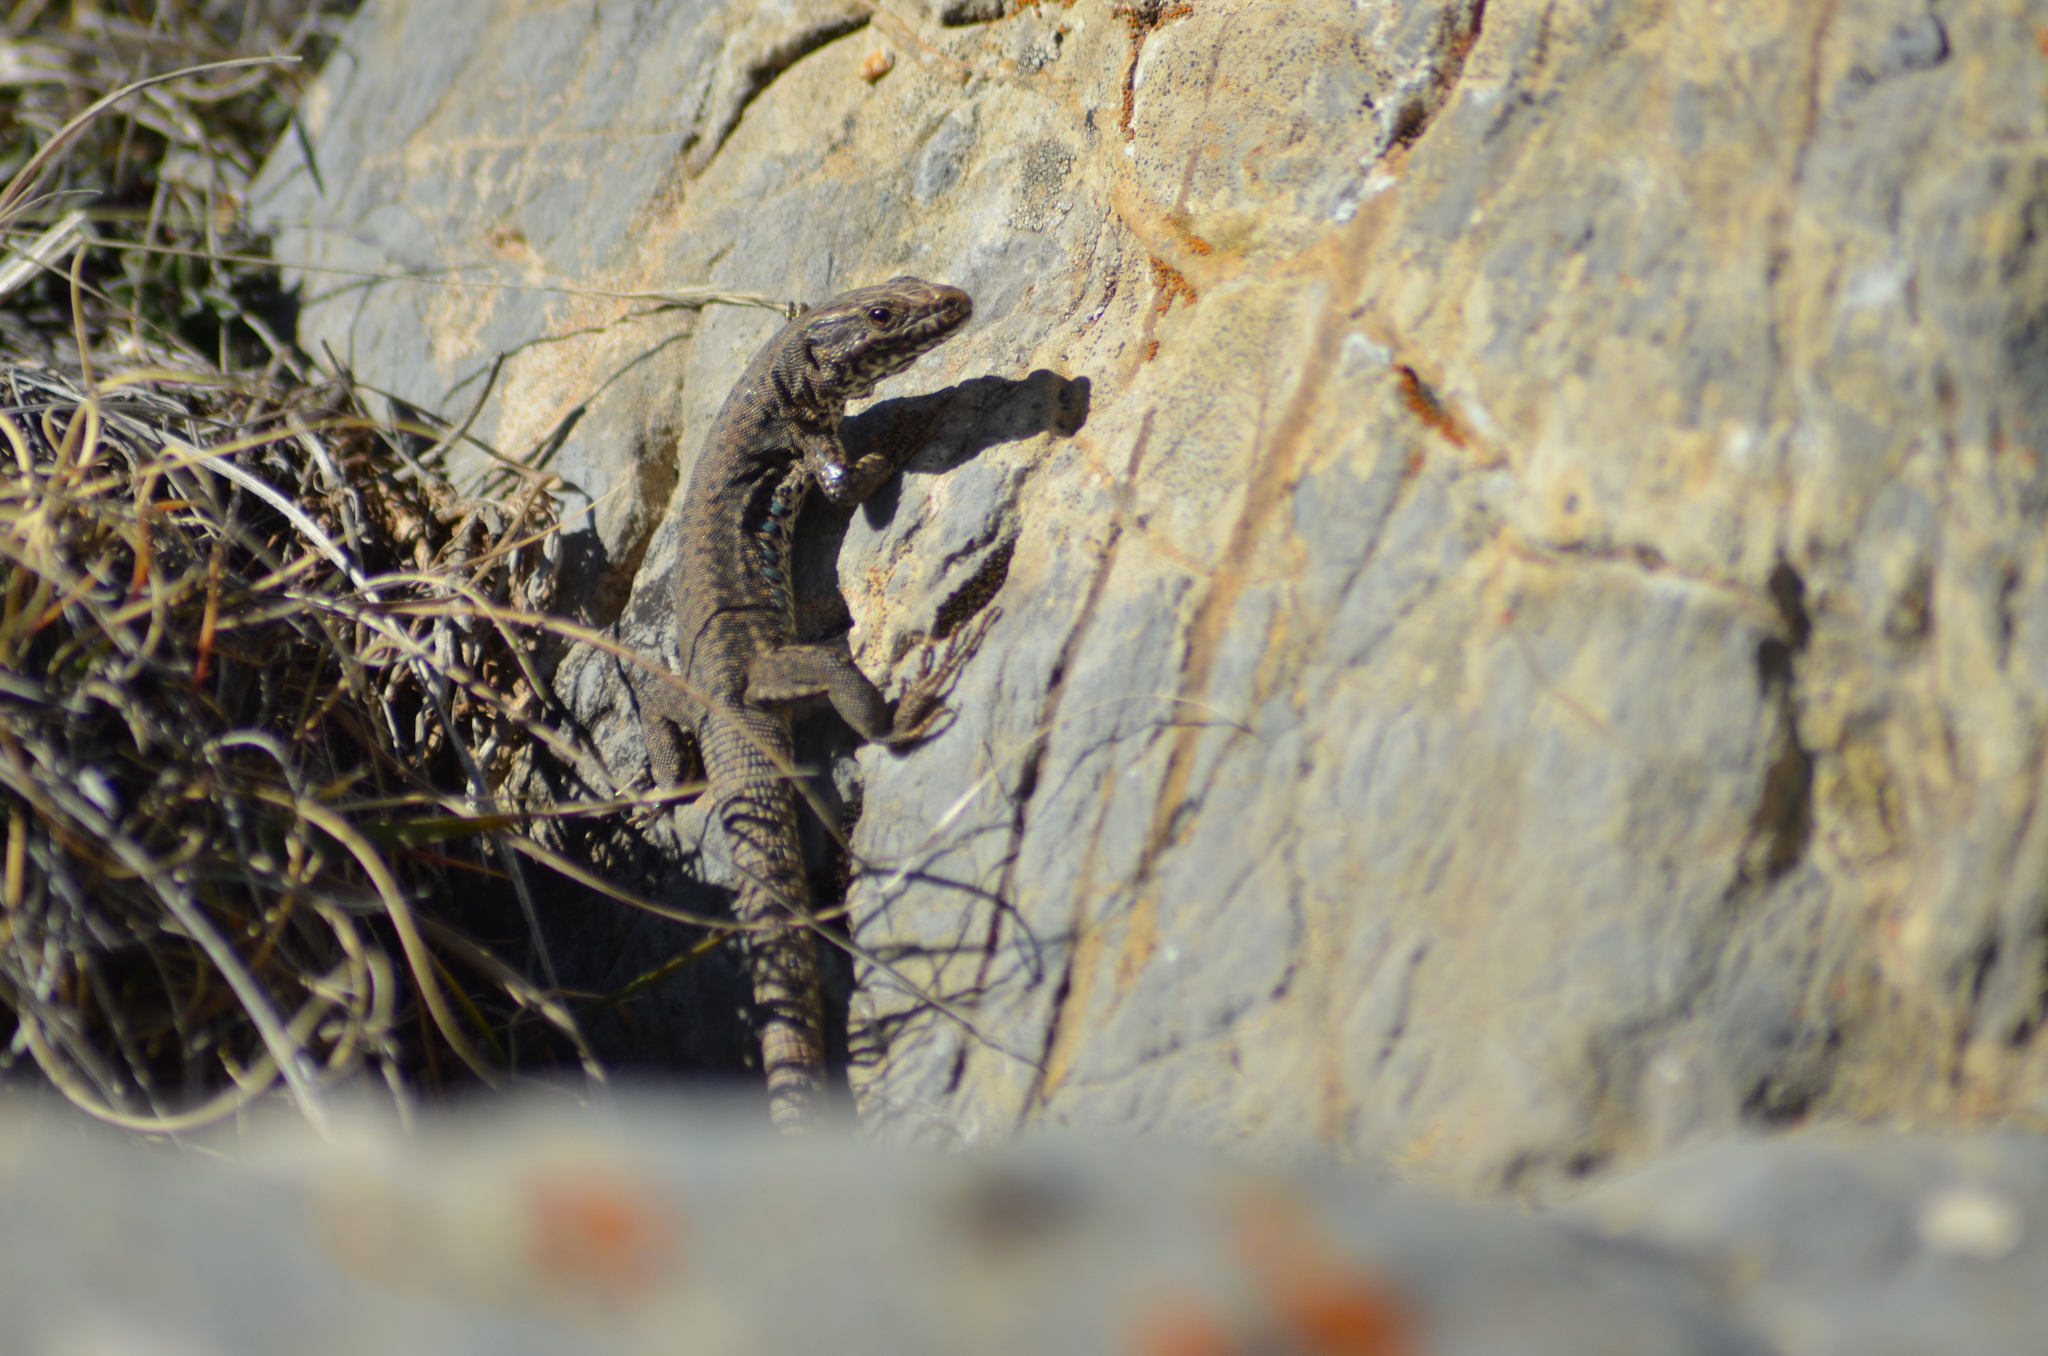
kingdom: Animalia
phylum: Chordata
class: Squamata
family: Lacertidae
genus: Podarcis
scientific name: Podarcis muralis
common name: Common wall lizard
